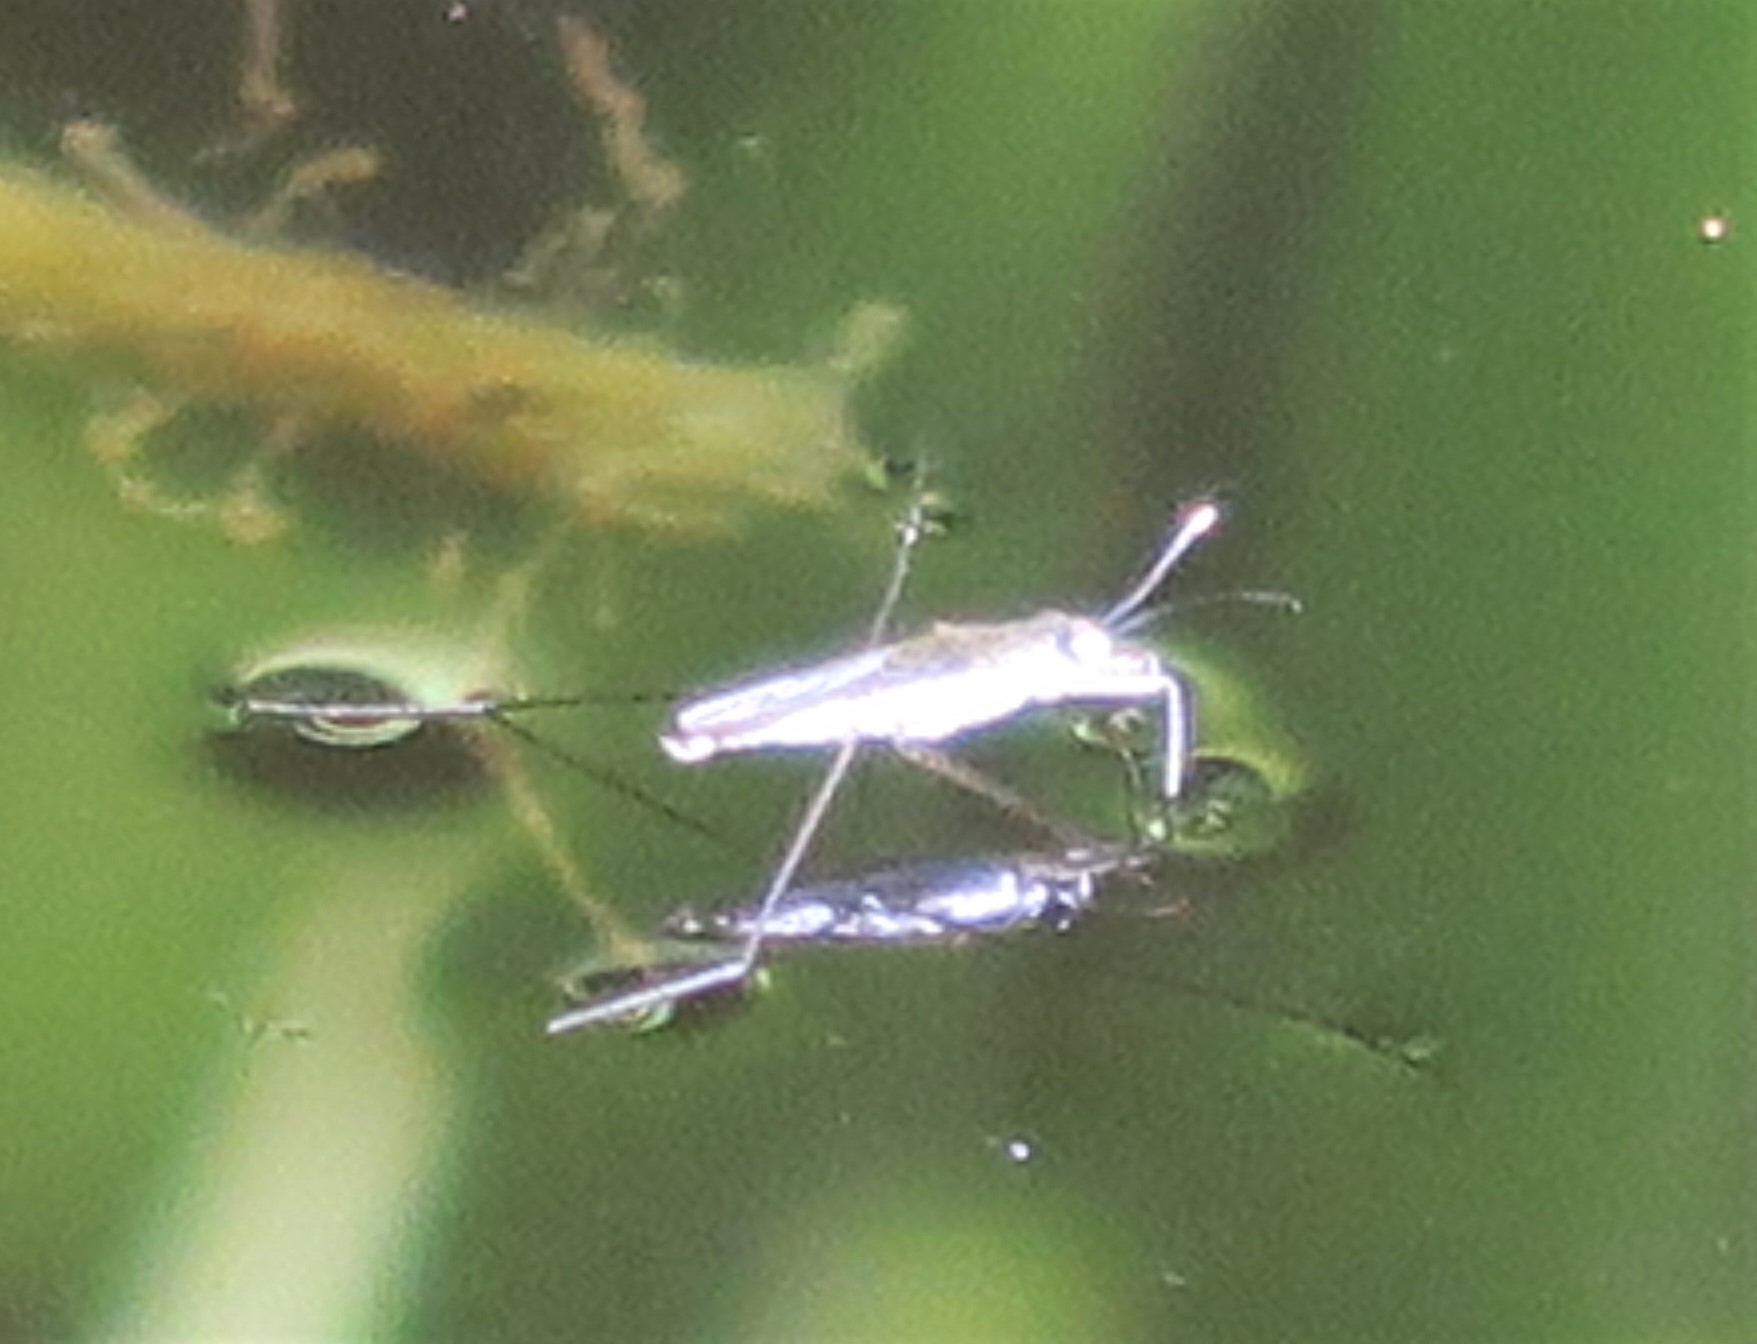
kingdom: Animalia
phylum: Arthropoda
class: Insecta
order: Hemiptera
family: Gerridae
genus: Gerris
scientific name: Gerris swakopensis
